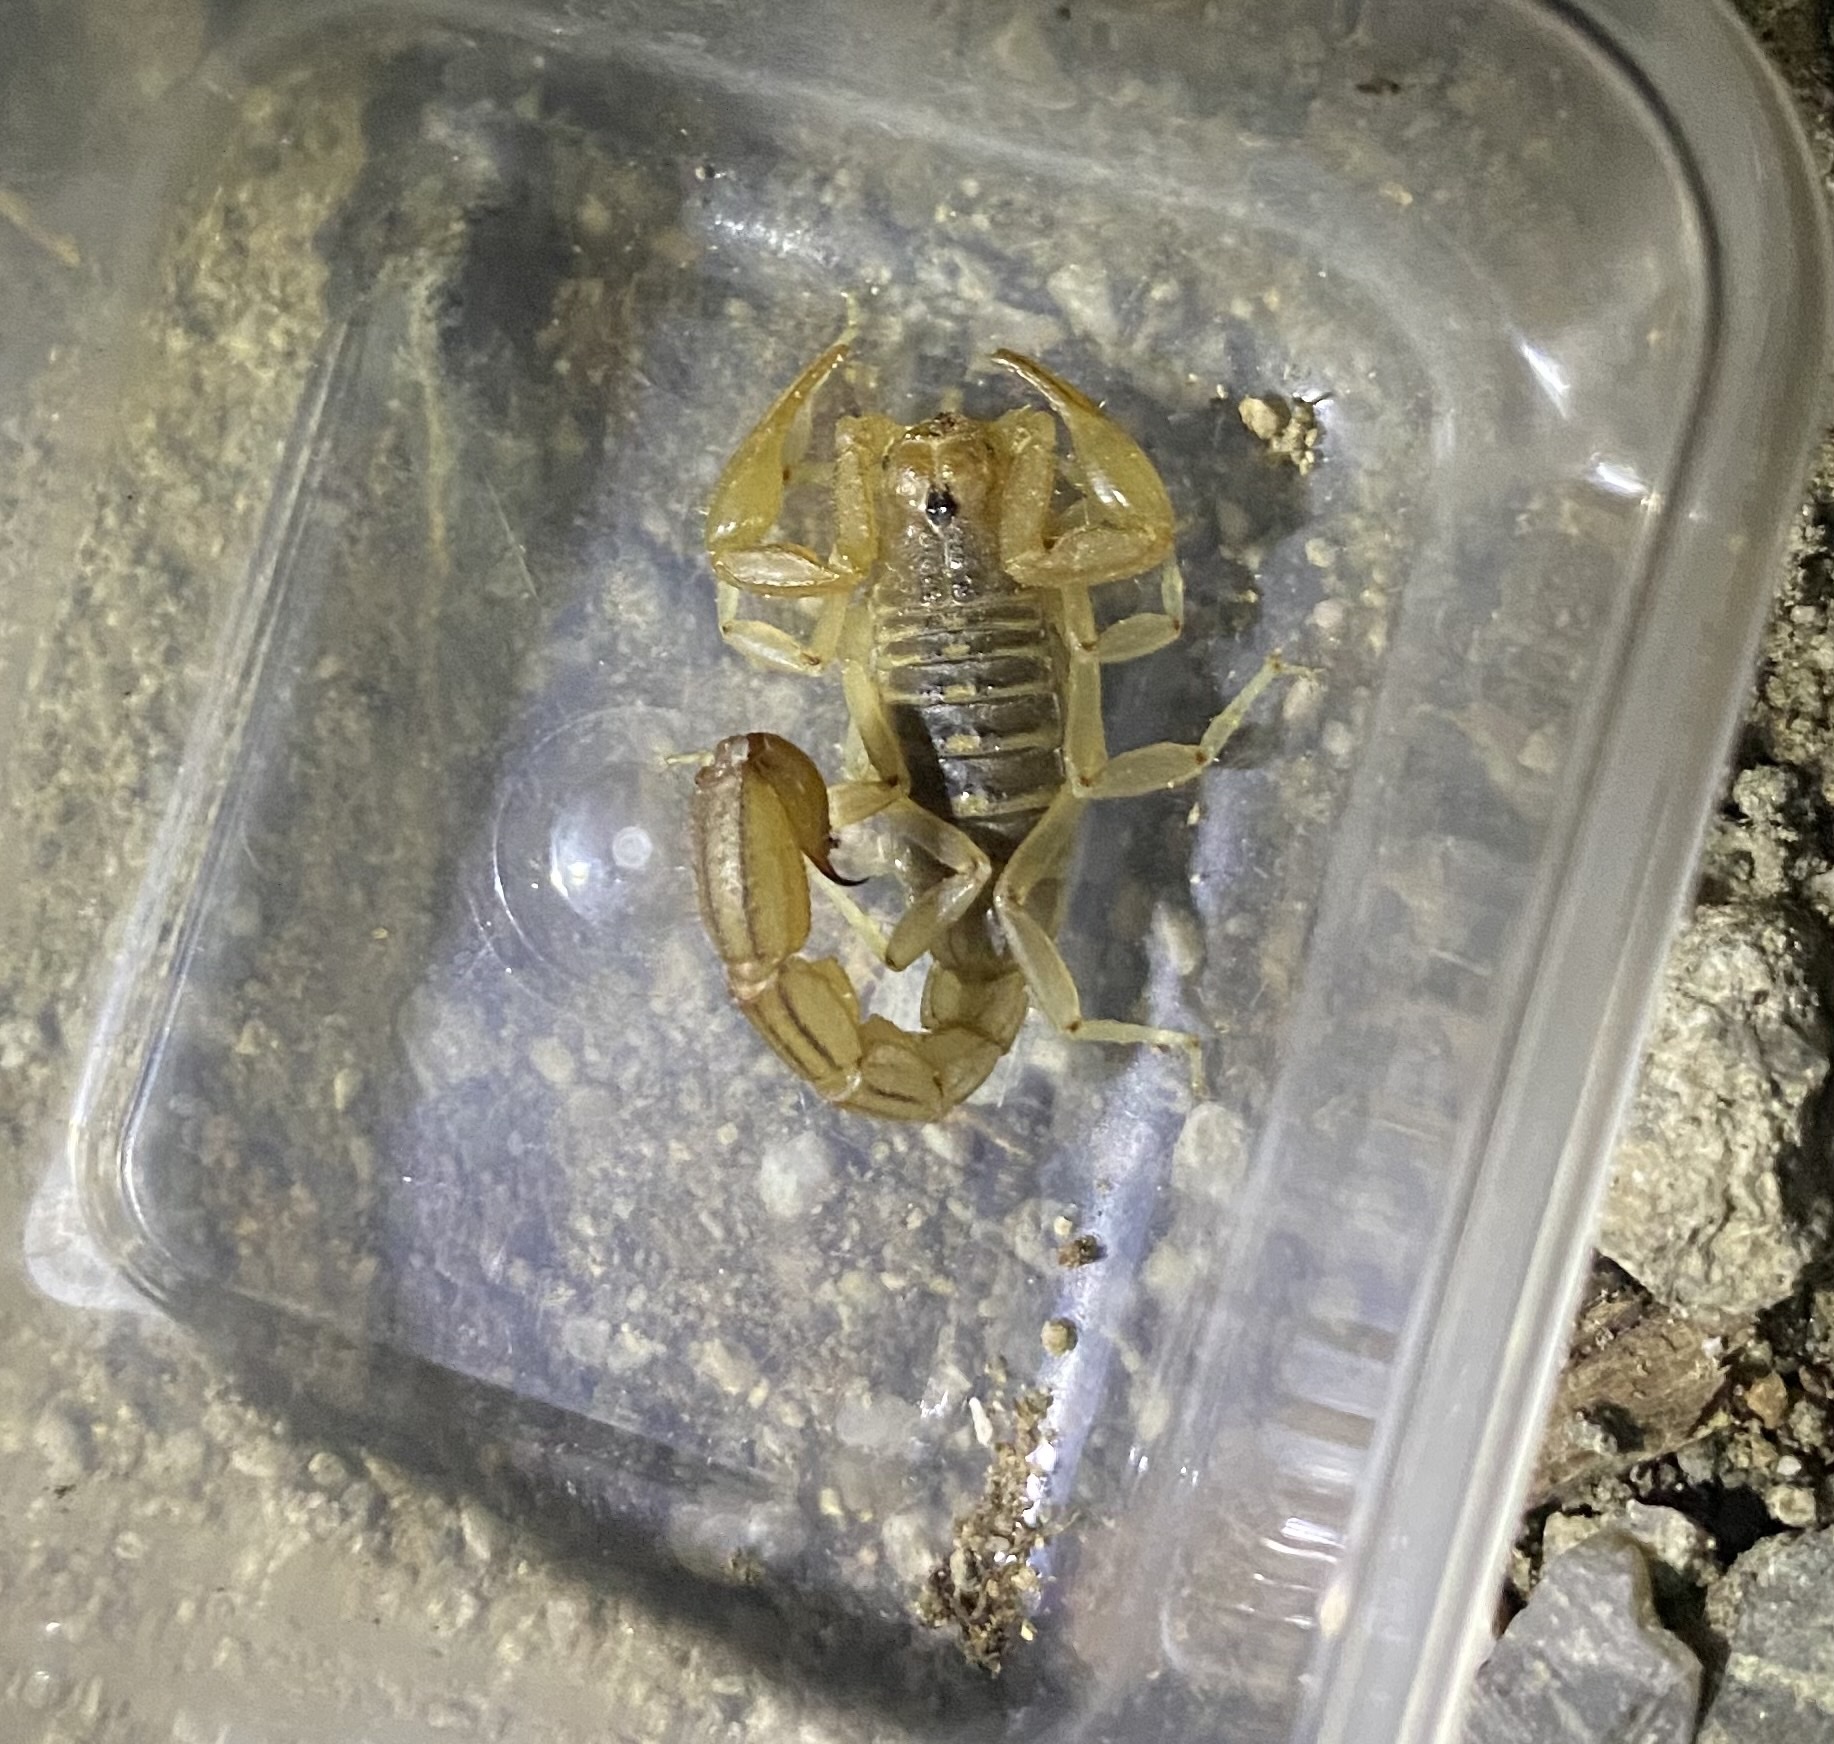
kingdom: Animalia
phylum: Arthropoda
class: Arachnida
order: Scorpiones
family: Vaejovidae
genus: Paravaejovis
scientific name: Paravaejovis spinigerus
